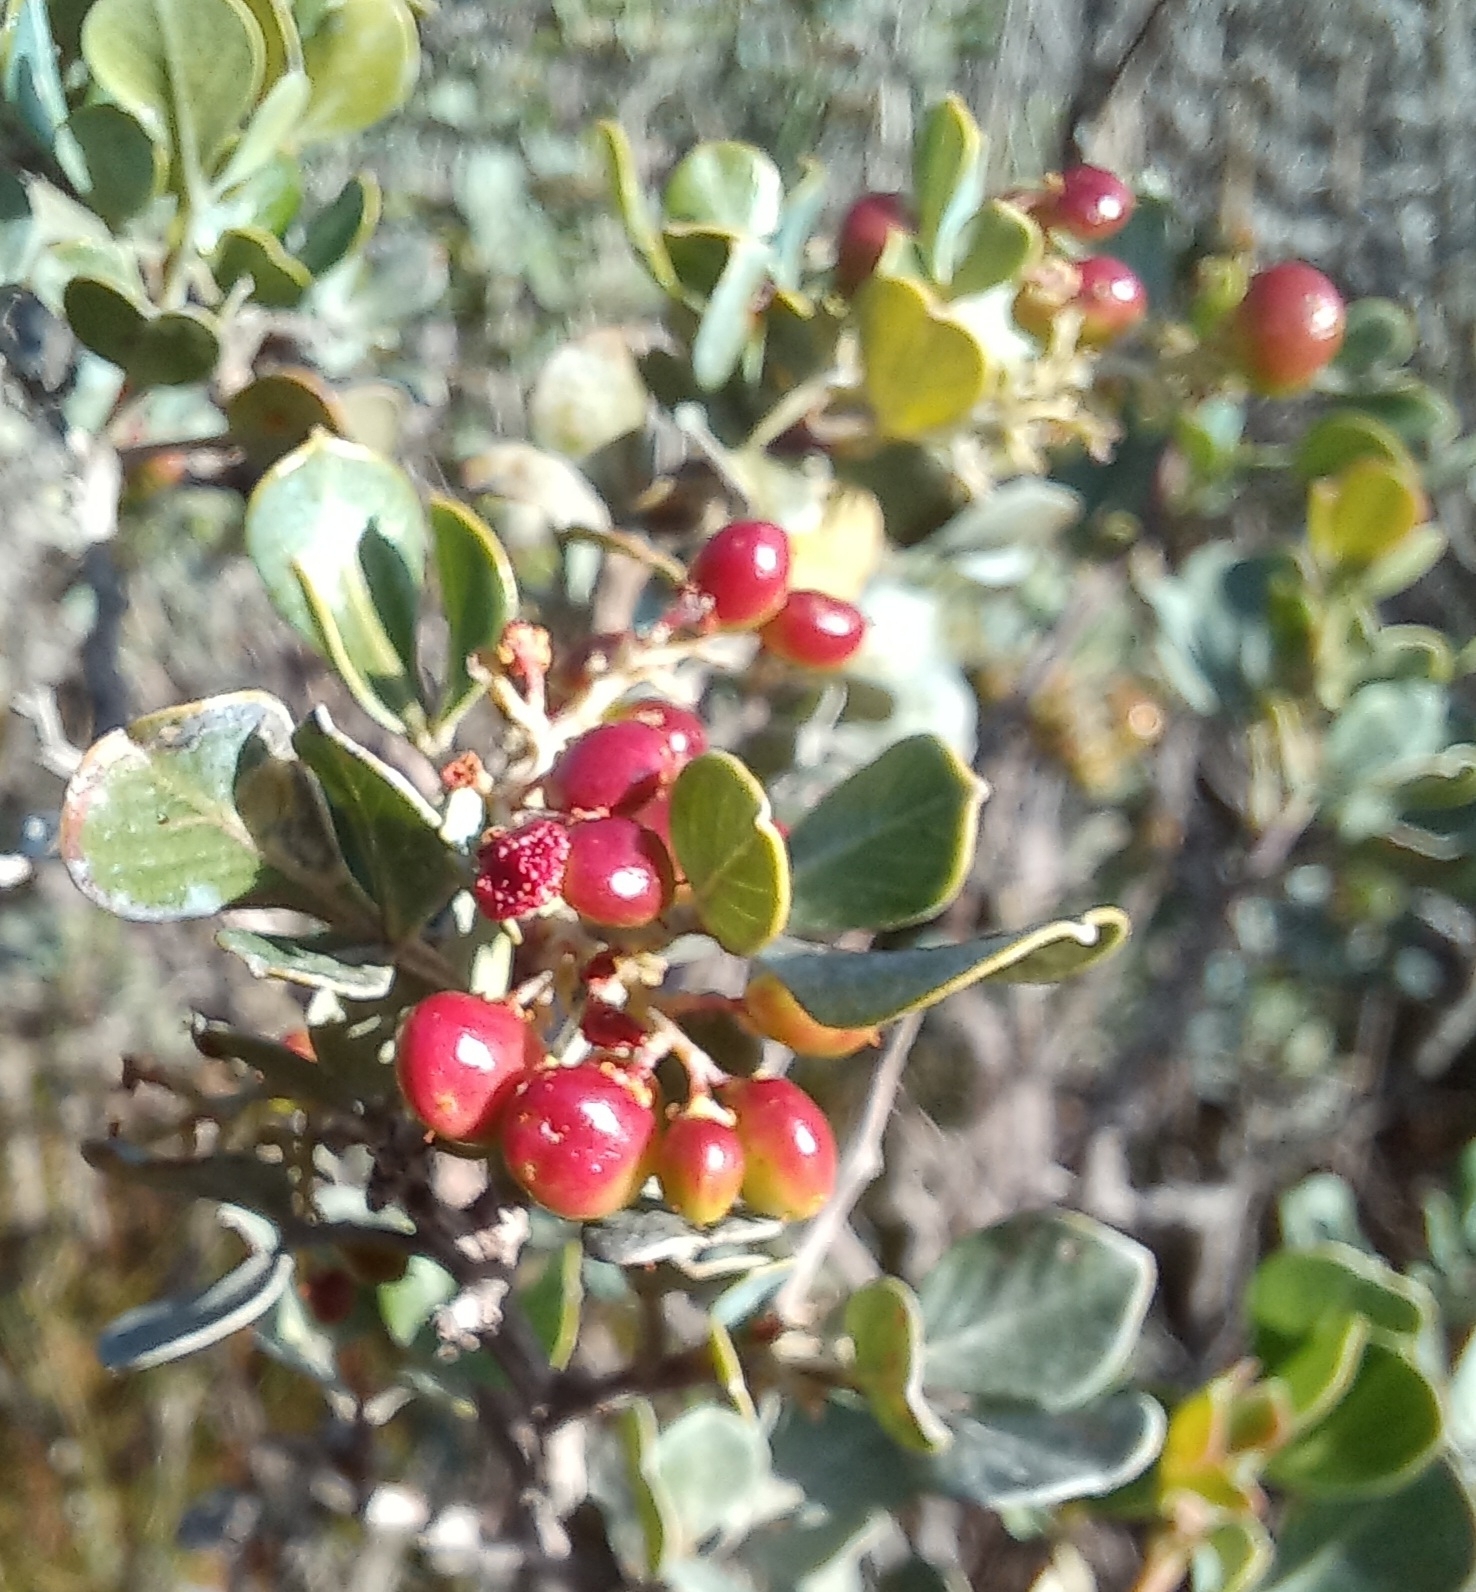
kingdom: Plantae
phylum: Tracheophyta
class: Magnoliopsida
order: Sapindales
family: Anacardiaceae
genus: Searsia
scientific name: Searsia glauca
